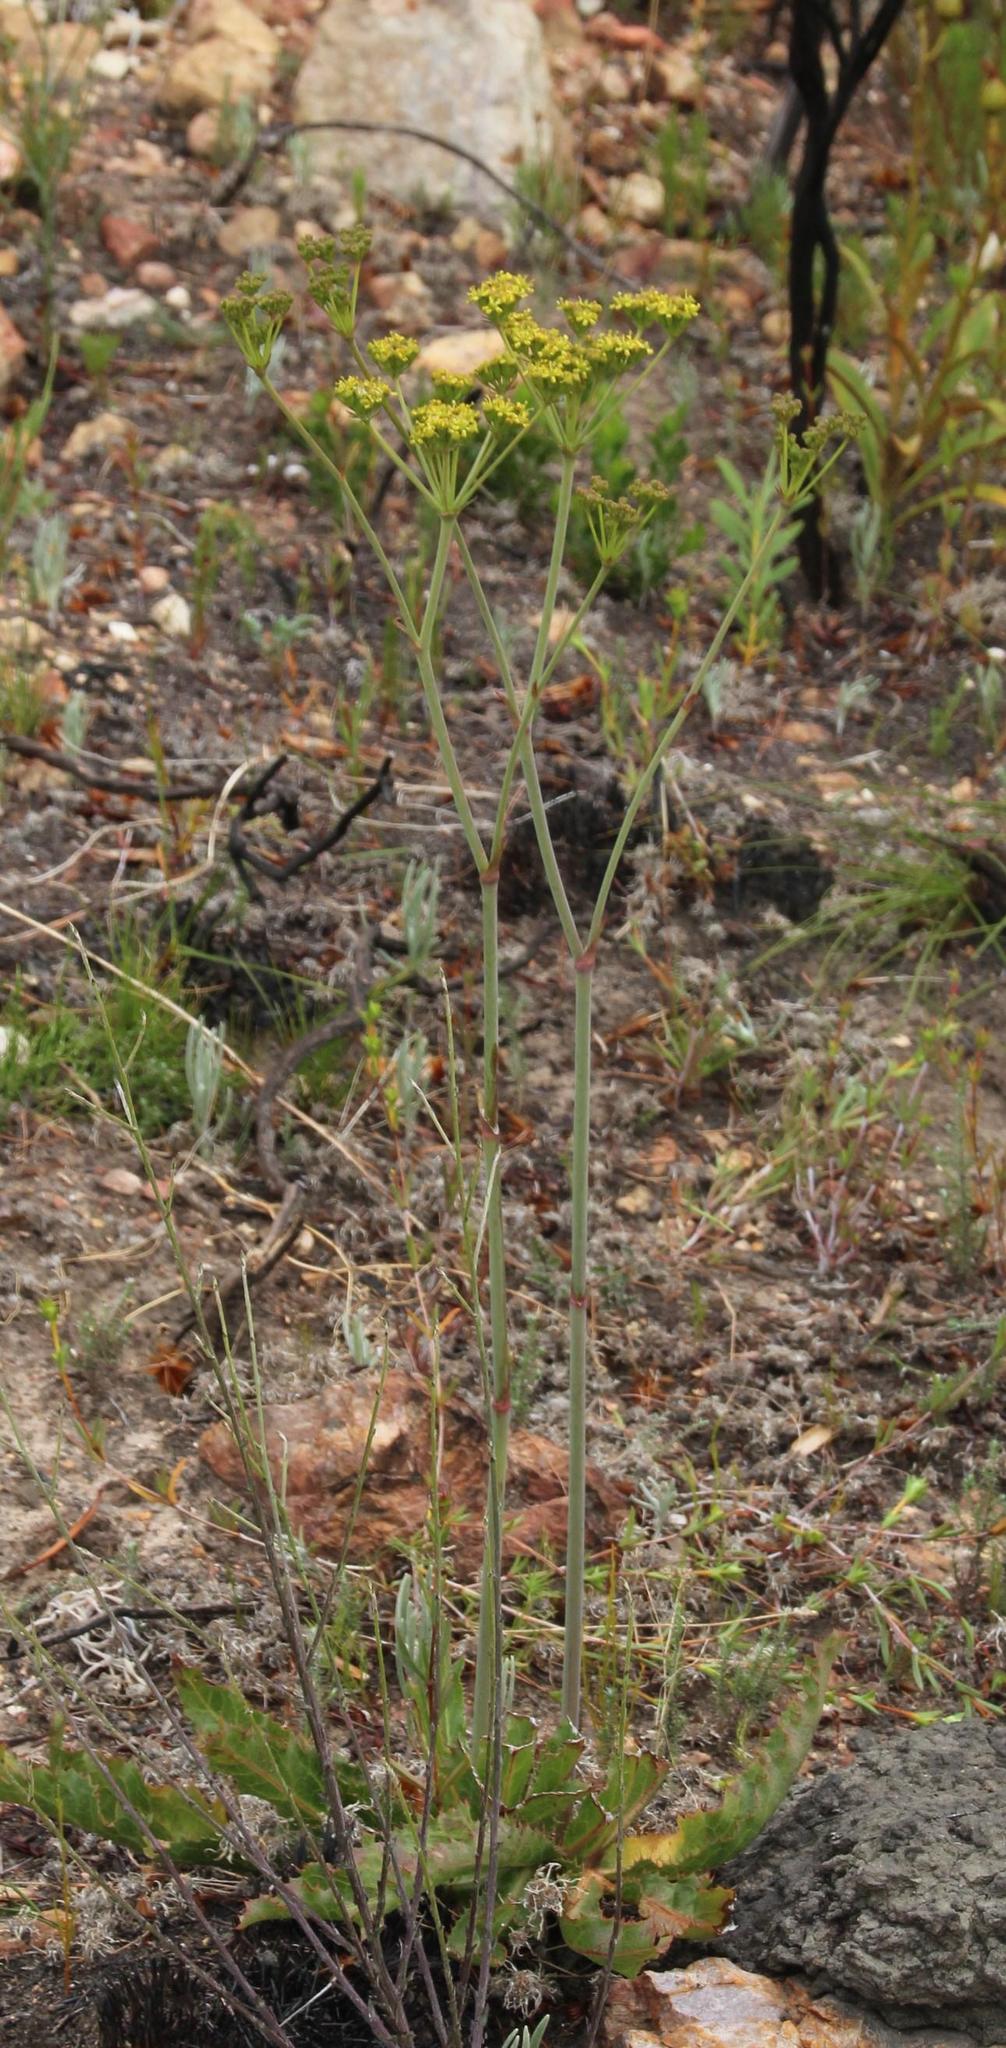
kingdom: Plantae
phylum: Tracheophyta
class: Magnoliopsida
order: Apiales
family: Apiaceae
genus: Lichtensteinia
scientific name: Lichtensteinia lacera
